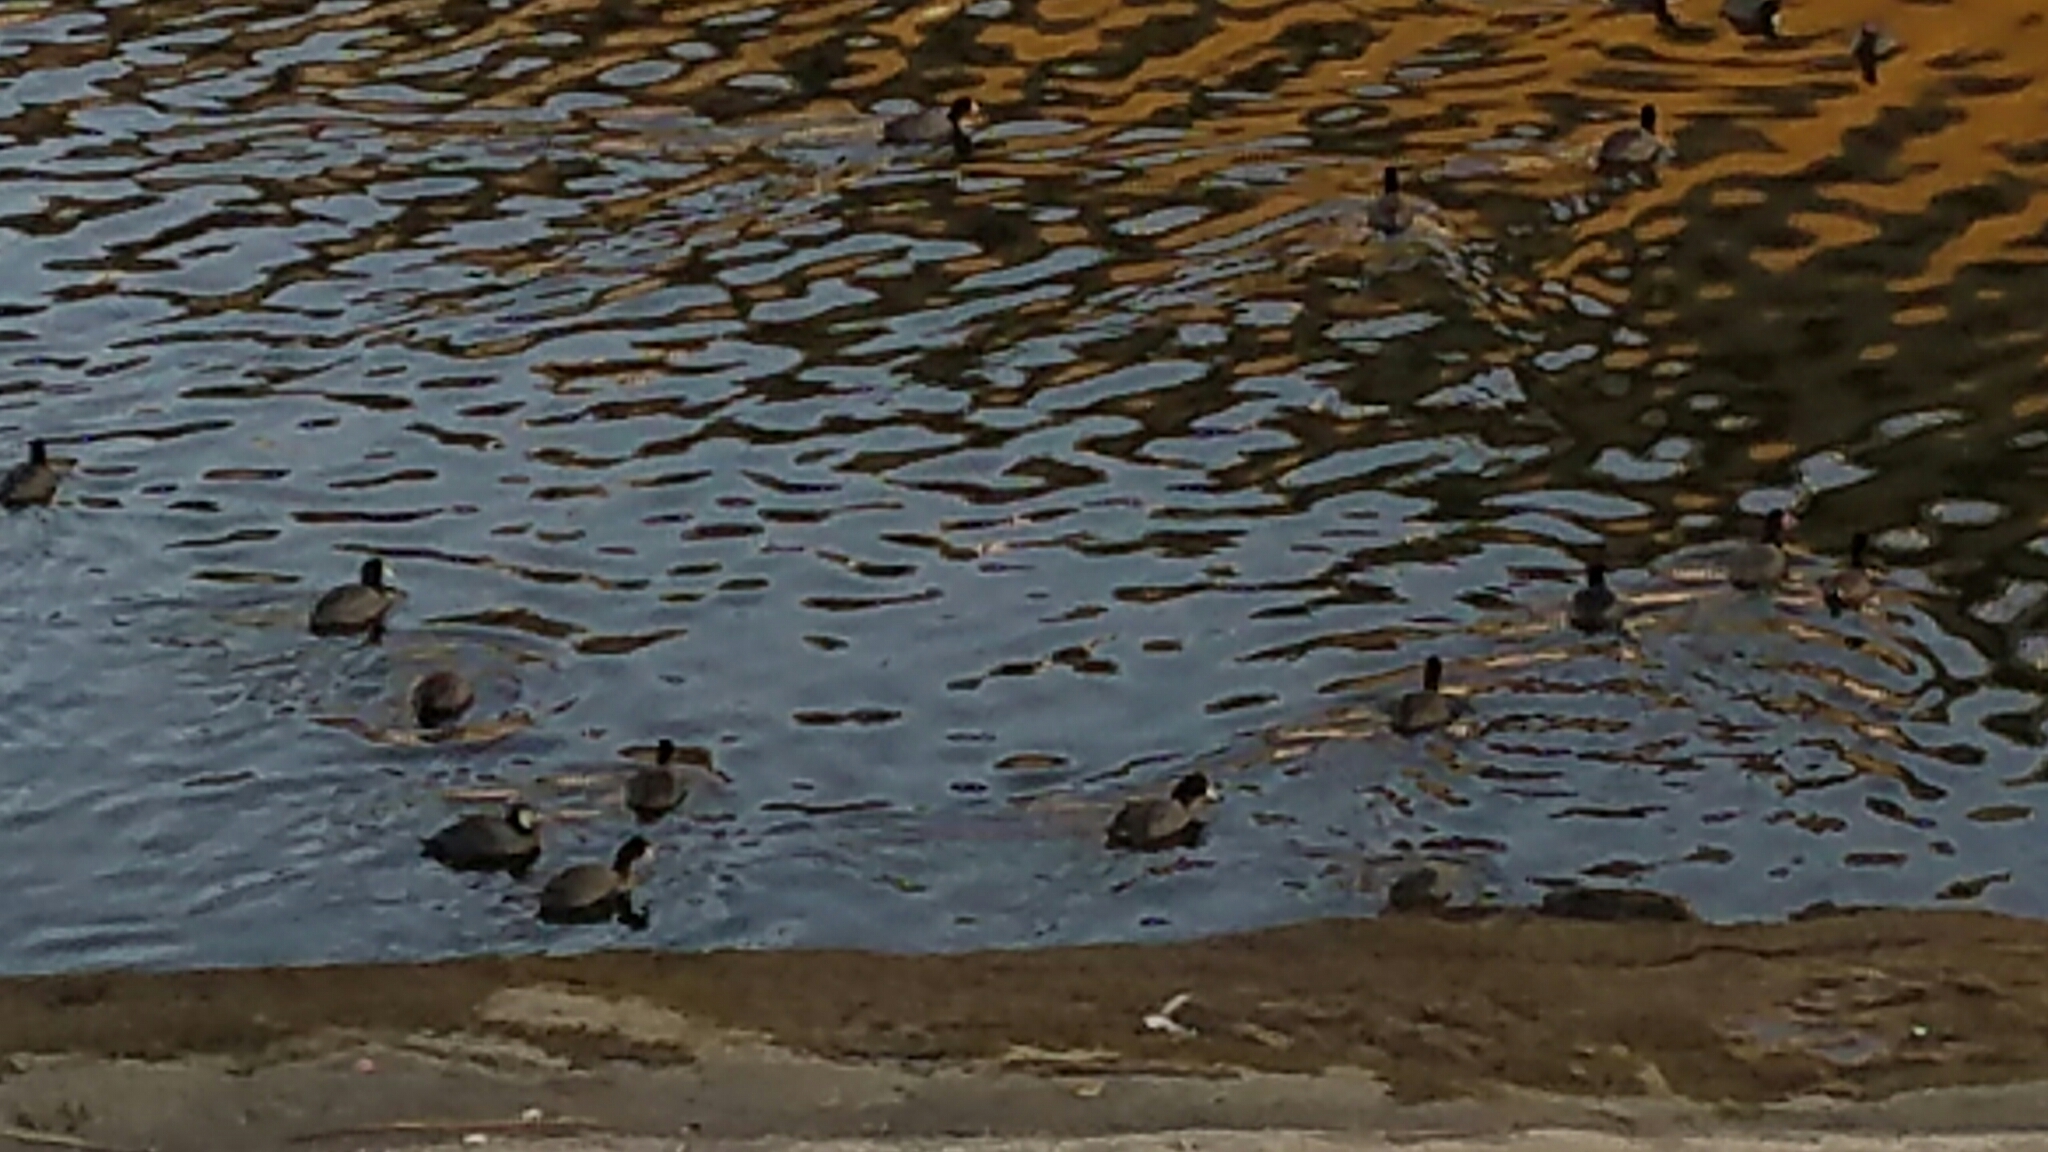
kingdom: Animalia
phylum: Chordata
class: Aves
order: Gruiformes
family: Rallidae
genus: Fulica
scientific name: Fulica americana
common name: American coot
